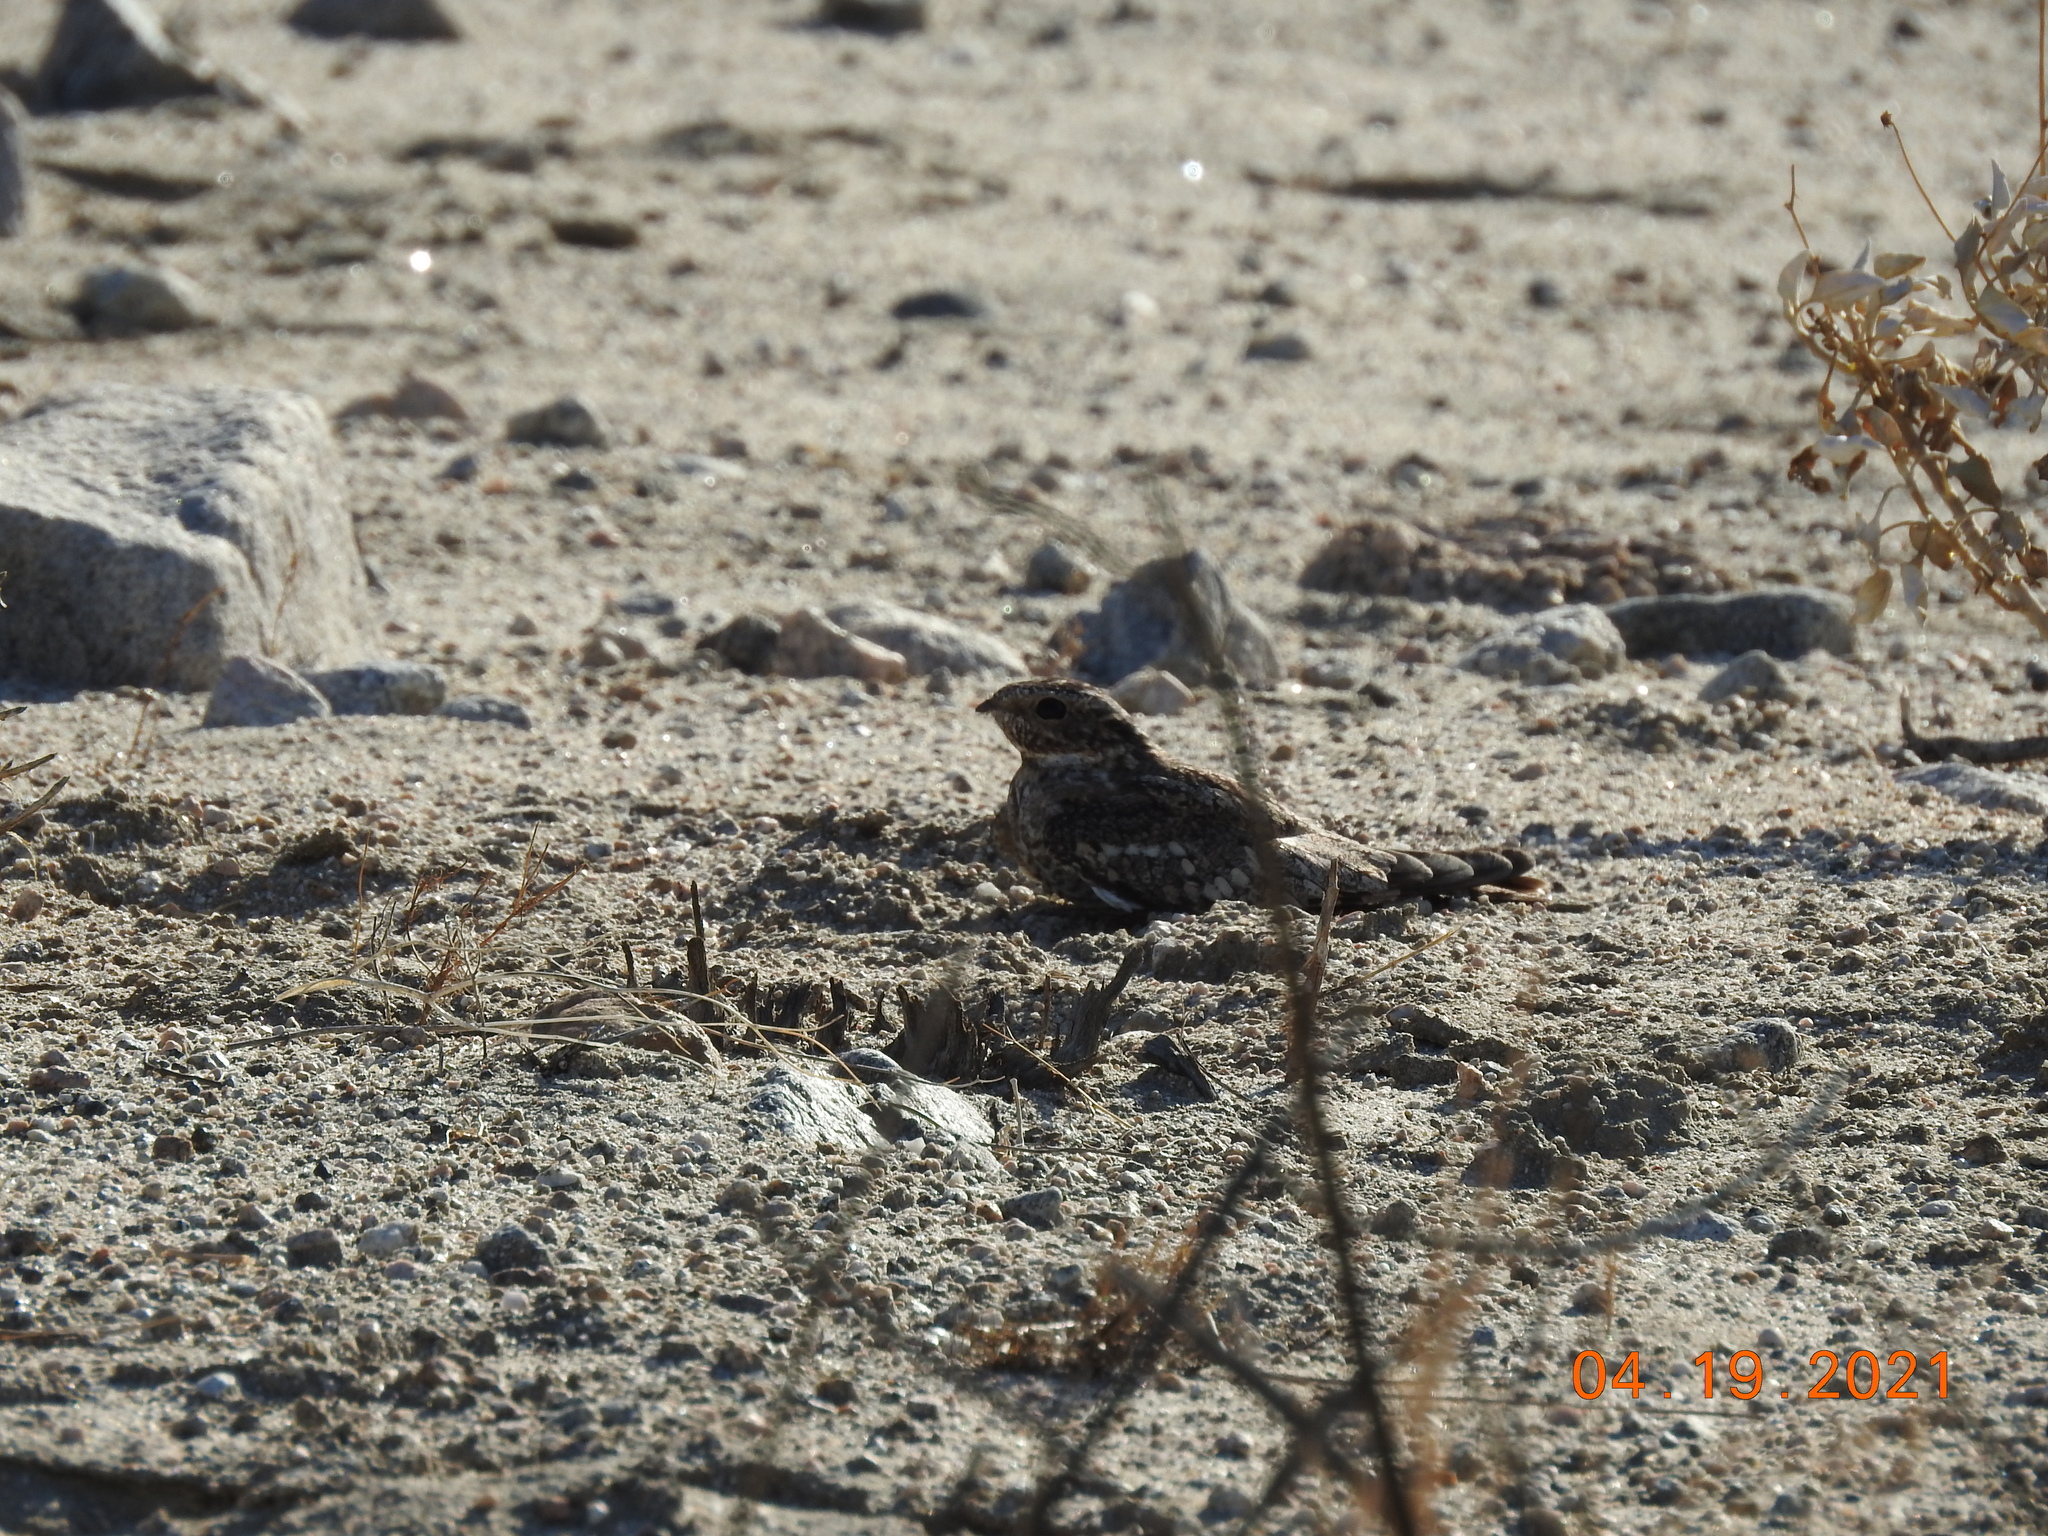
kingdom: Animalia
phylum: Chordata
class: Aves
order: Caprimulgiformes
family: Caprimulgidae
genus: Chordeiles
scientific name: Chordeiles acutipennis
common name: Lesser nighthawk
